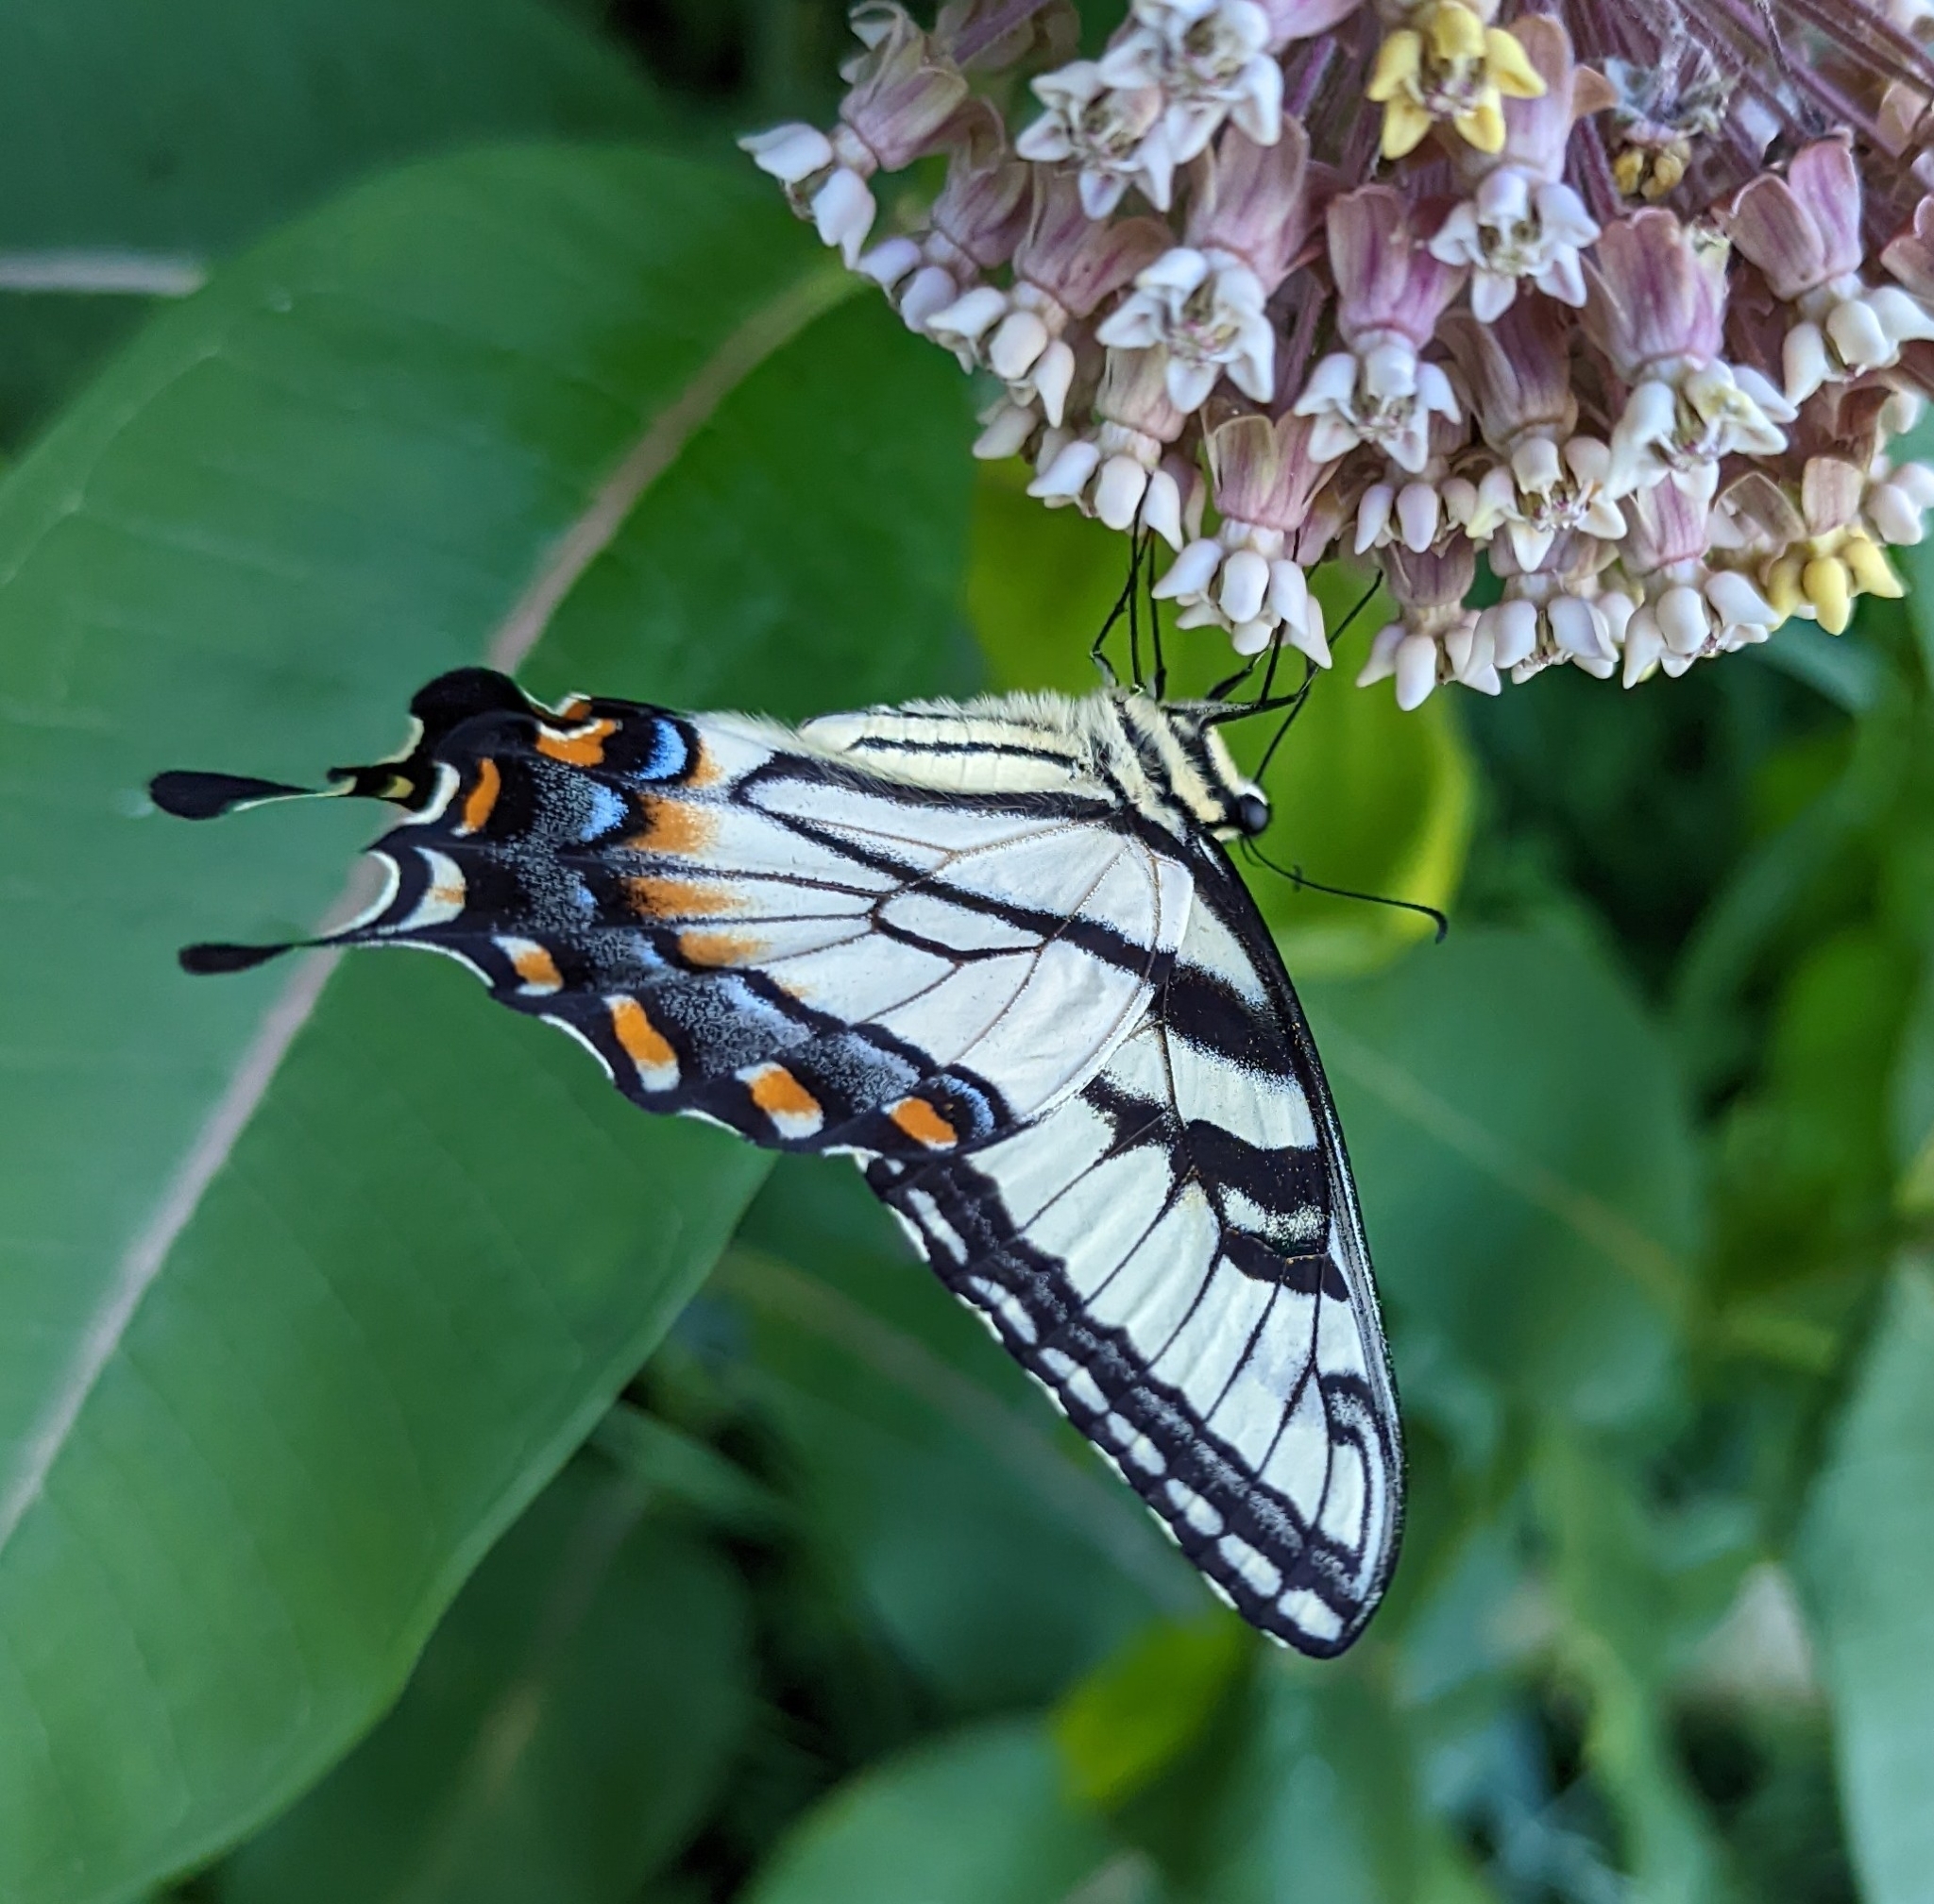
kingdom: Animalia
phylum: Arthropoda
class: Insecta
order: Lepidoptera
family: Papilionidae
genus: Papilio
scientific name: Papilio glaucus
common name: Tiger swallowtail
